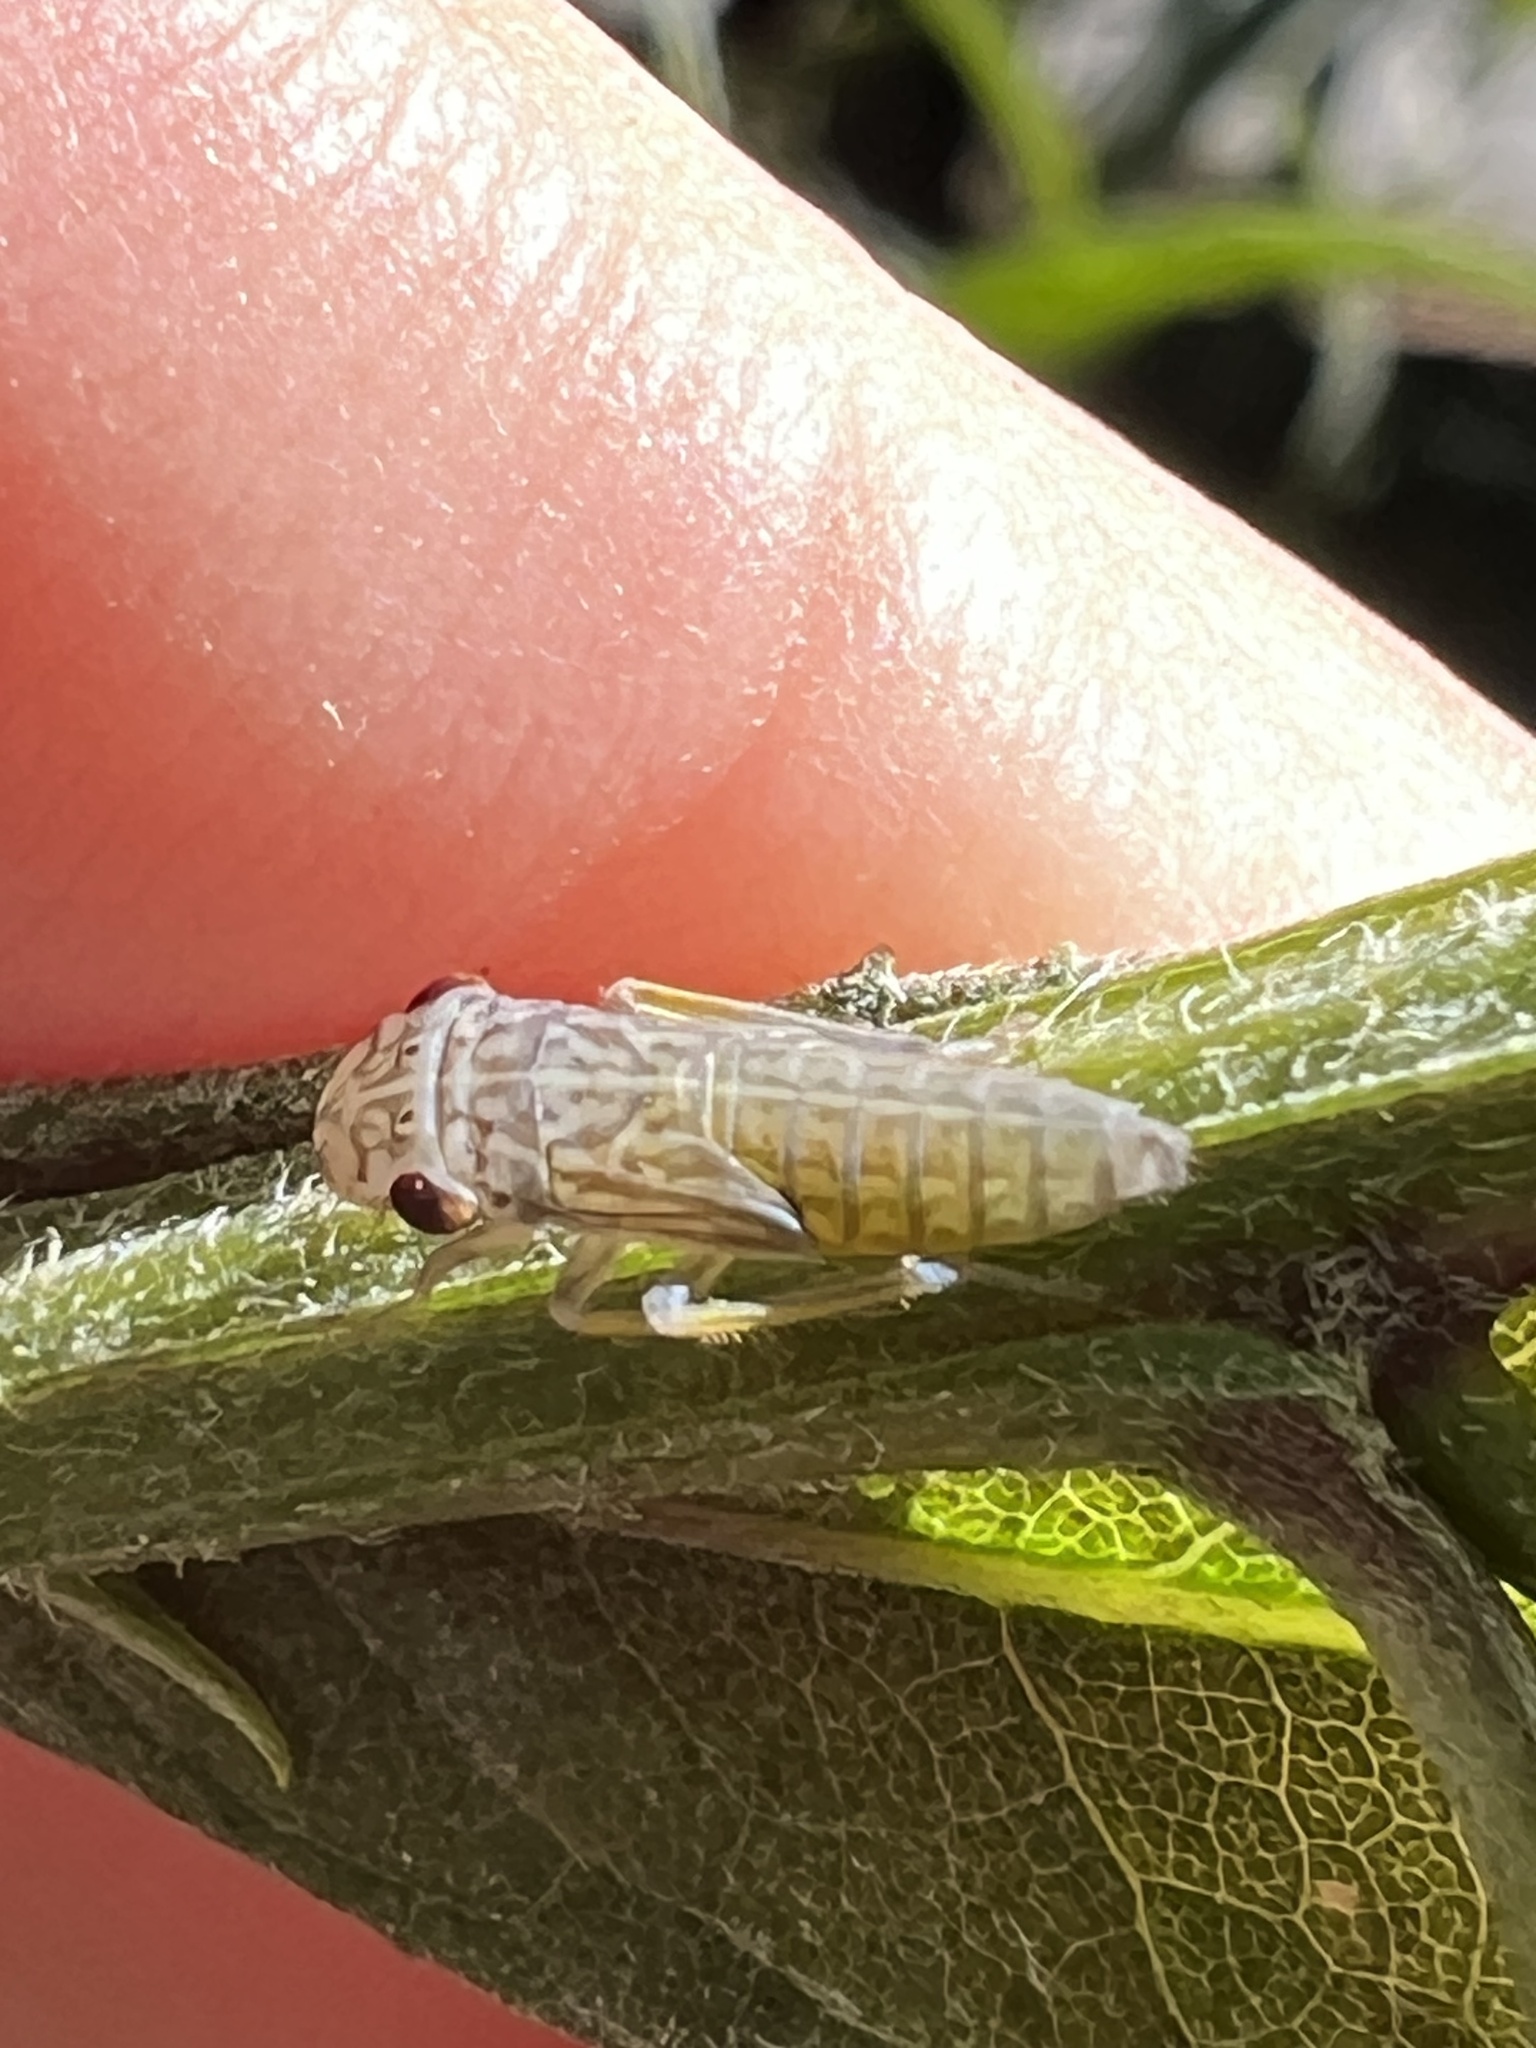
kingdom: Animalia
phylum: Arthropoda
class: Insecta
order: Hemiptera
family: Cicadellidae
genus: Oncometopia
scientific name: Oncometopia orbona
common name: Broad-headed sharpshooter
